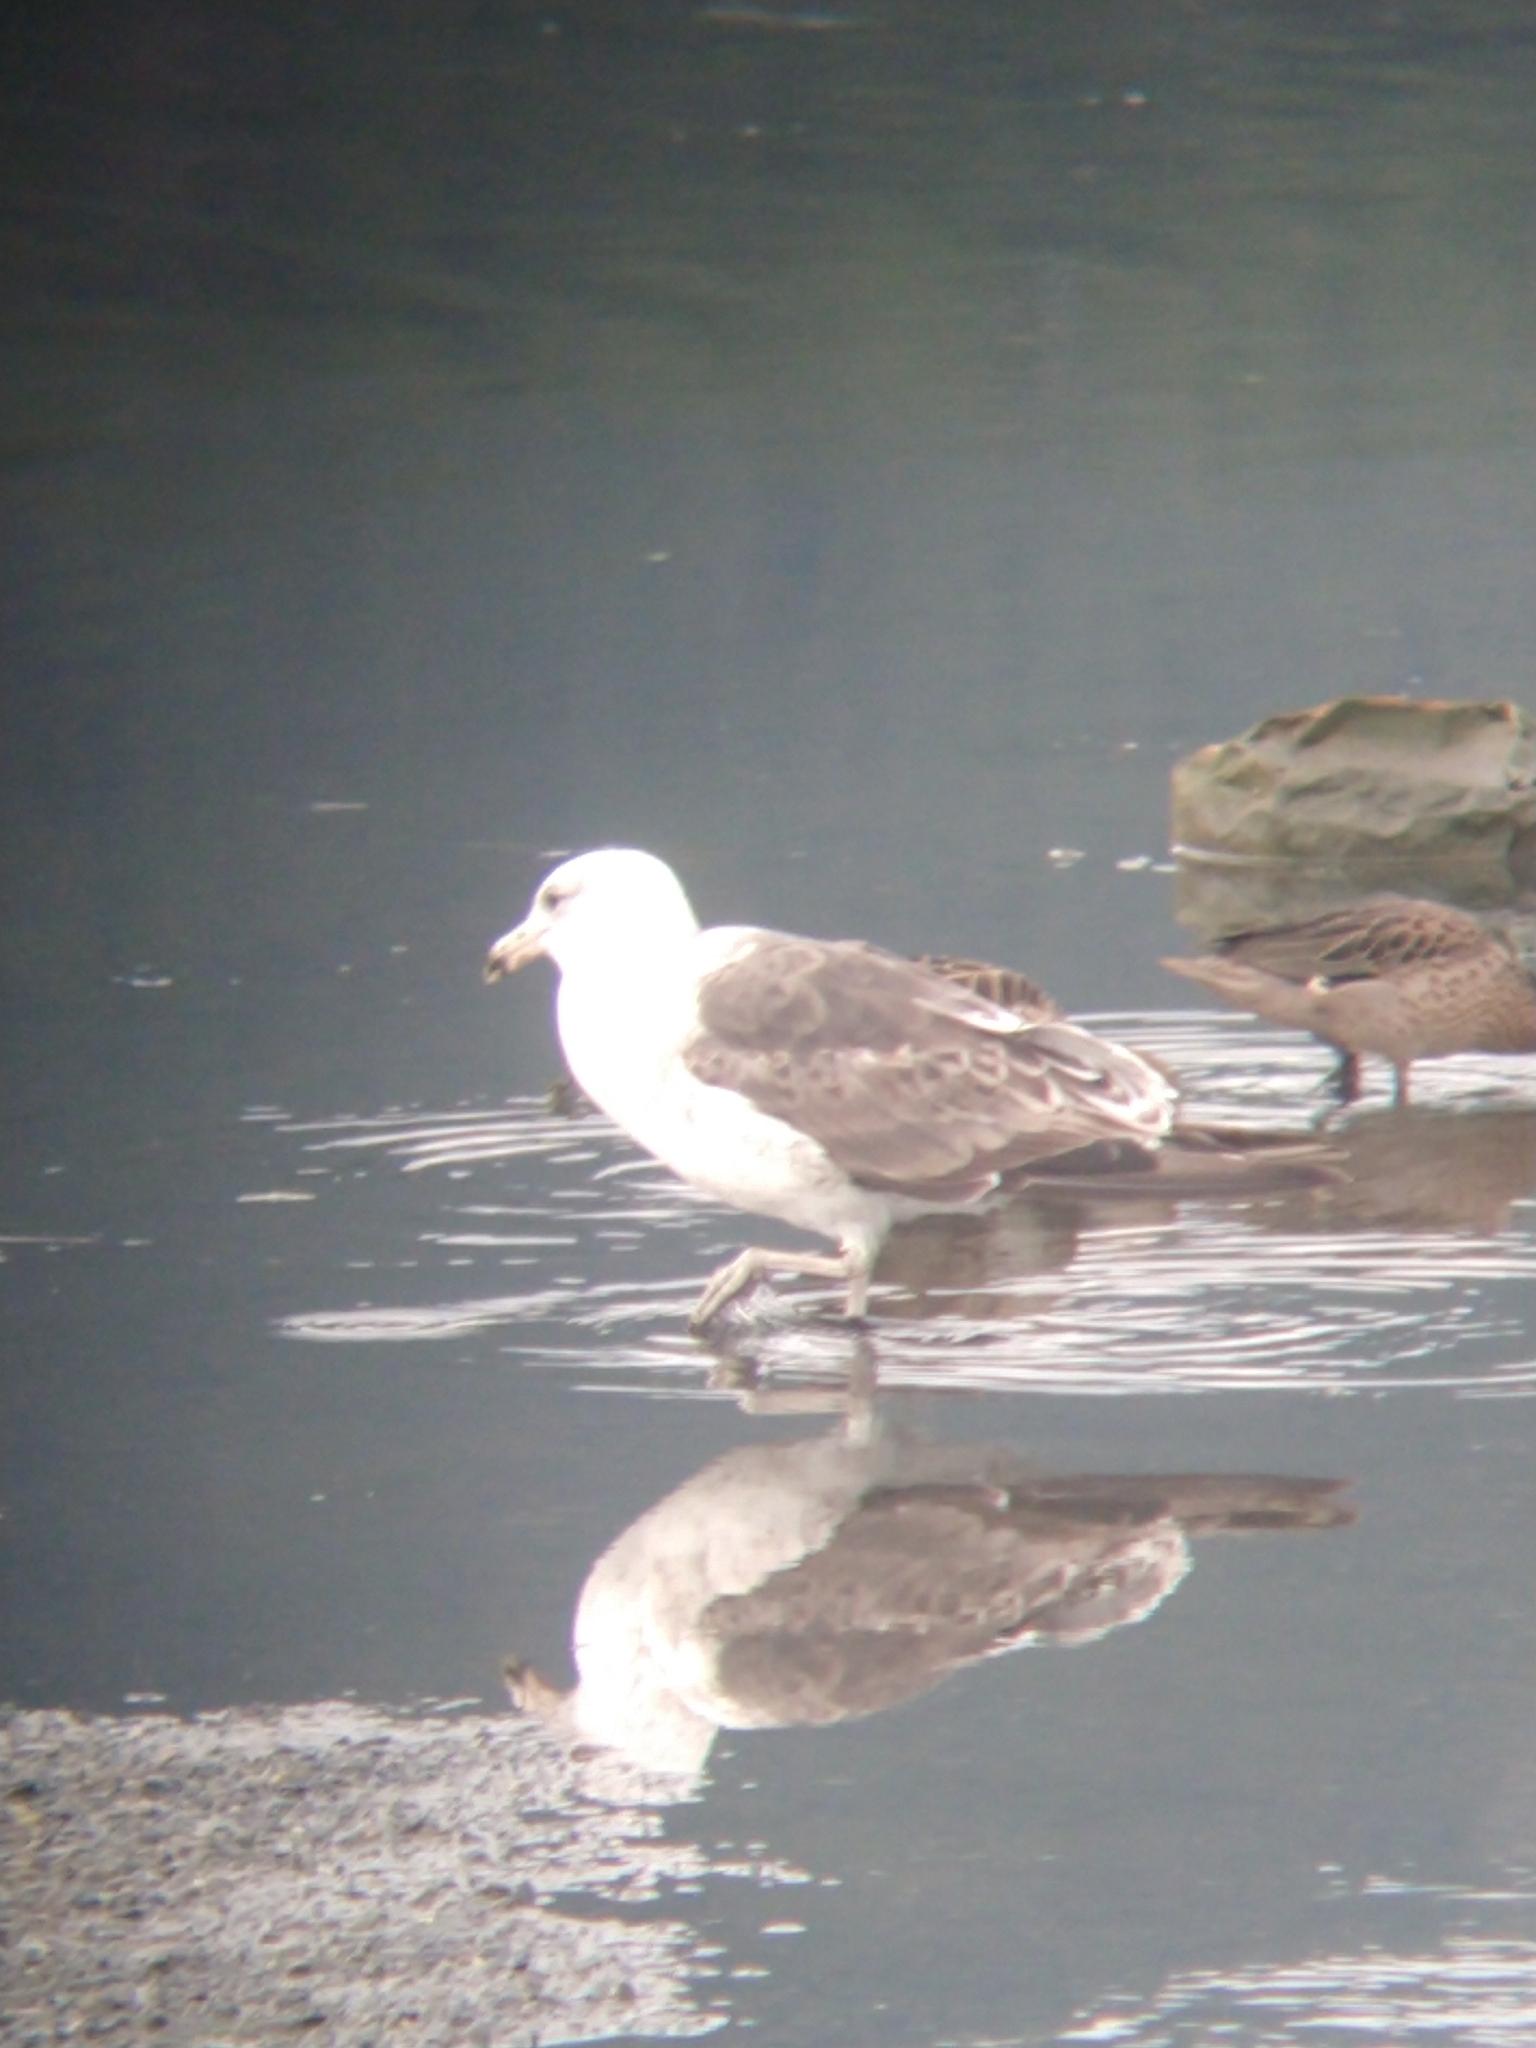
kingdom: Animalia
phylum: Chordata
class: Aves
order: Charadriiformes
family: Laridae
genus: Larus
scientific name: Larus dominicanus
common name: Kelp gull
